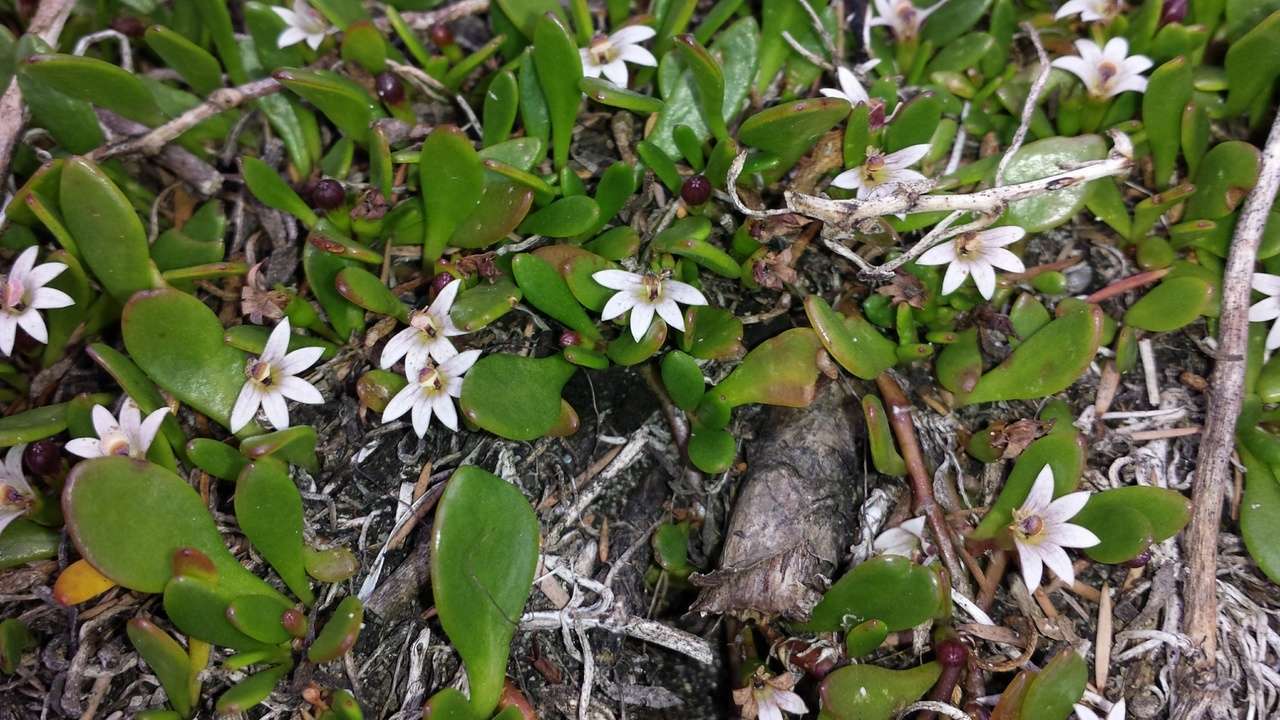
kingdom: Plantae
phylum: Tracheophyta
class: Magnoliopsida
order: Asterales
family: Goodeniaceae
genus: Goodenia
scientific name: Goodenia radicans
